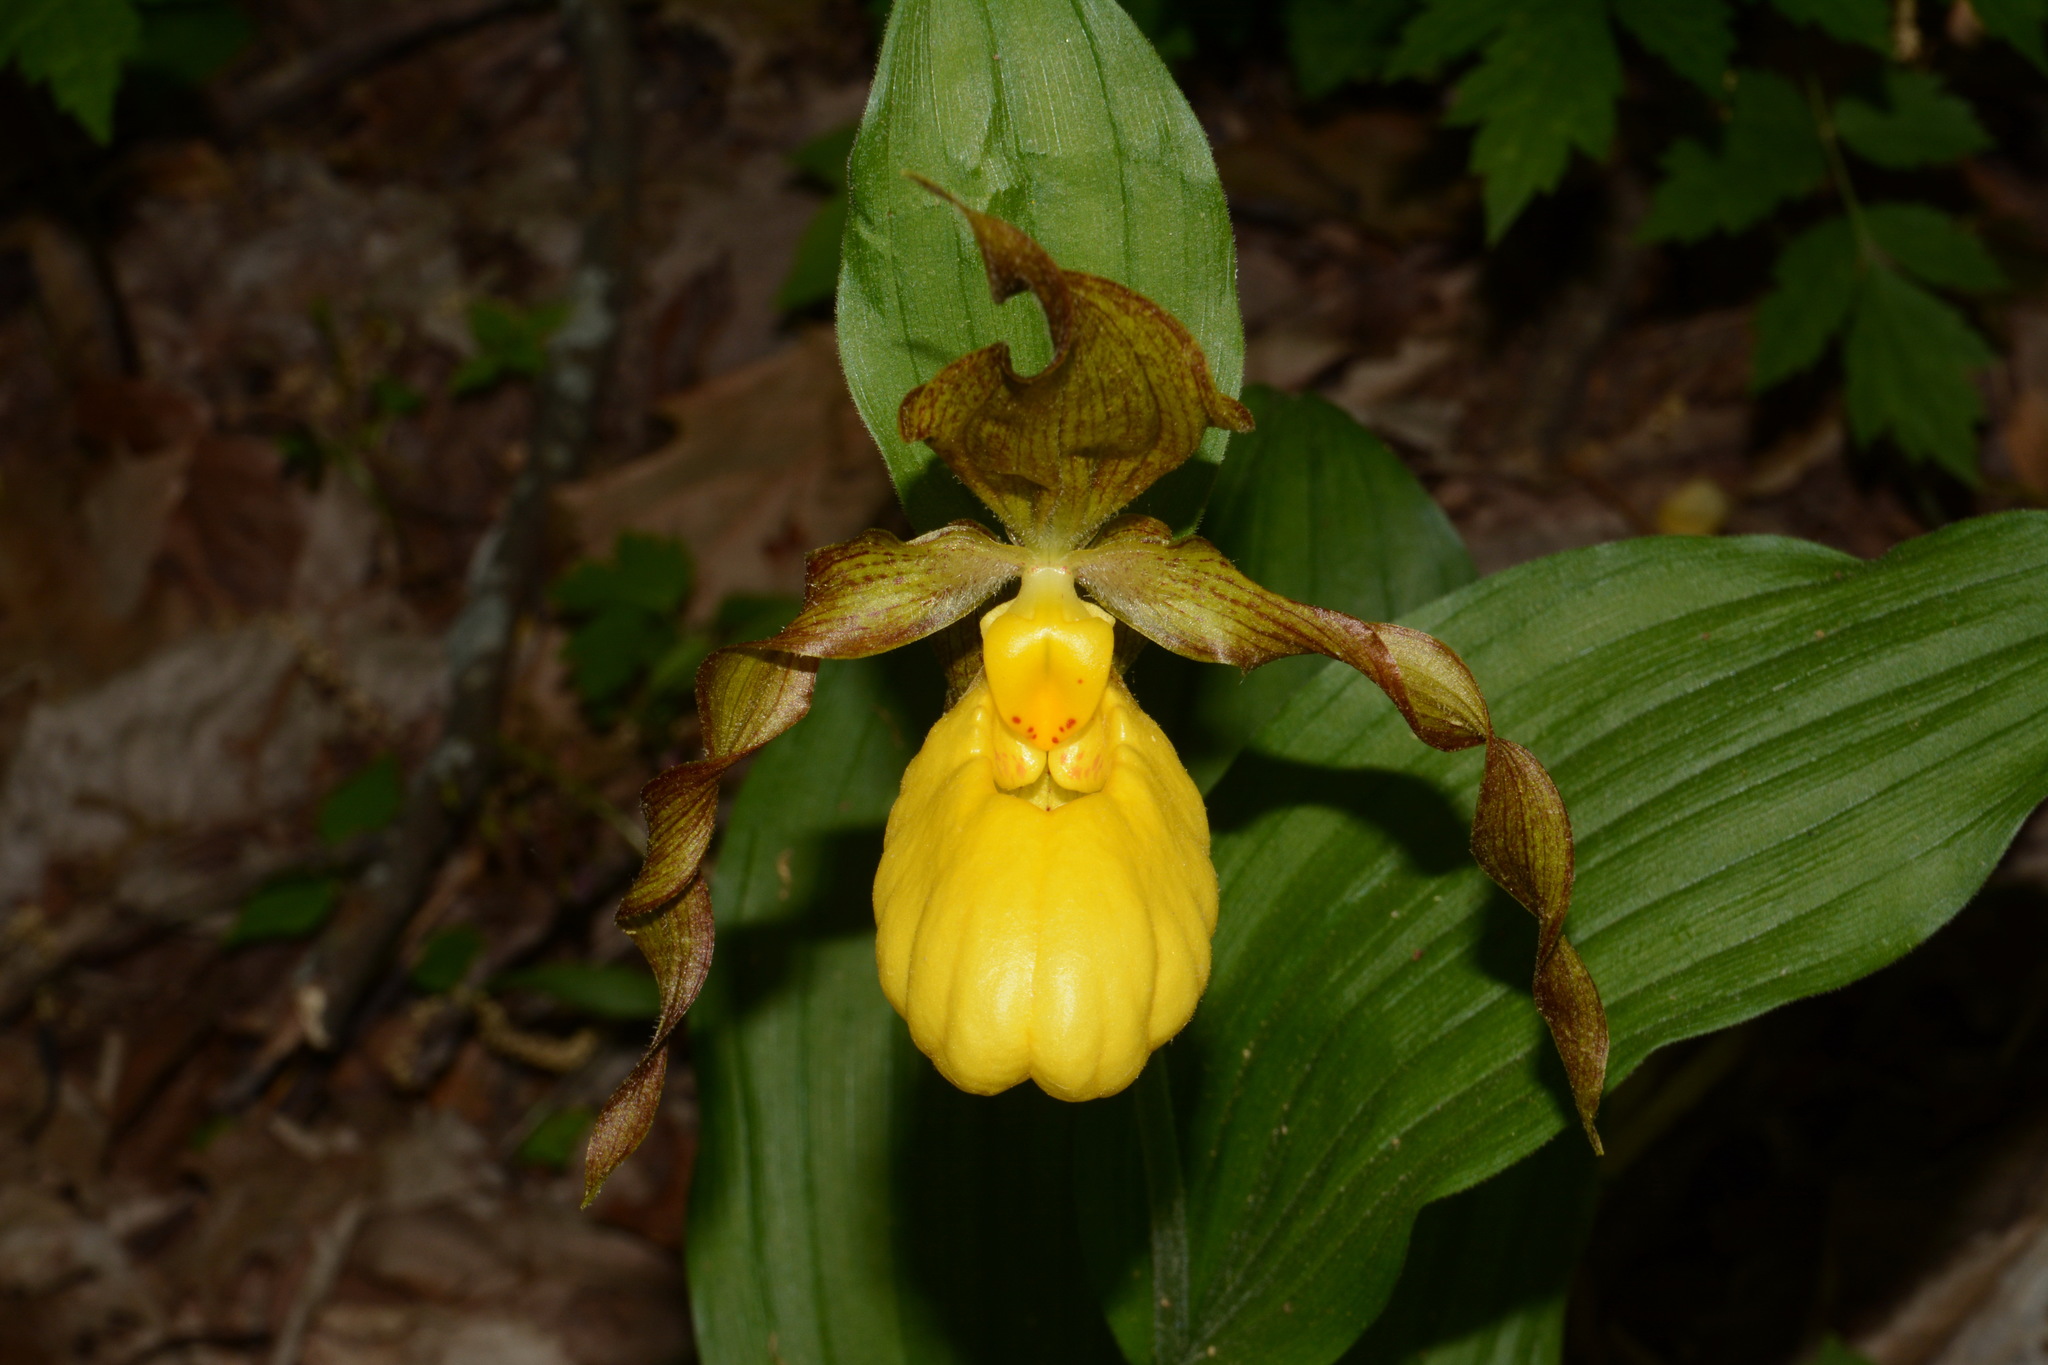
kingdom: Plantae
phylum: Tracheophyta
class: Liliopsida
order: Asparagales
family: Orchidaceae
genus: Cypripedium
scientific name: Cypripedium parviflorum
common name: American yellow lady's-slipper
